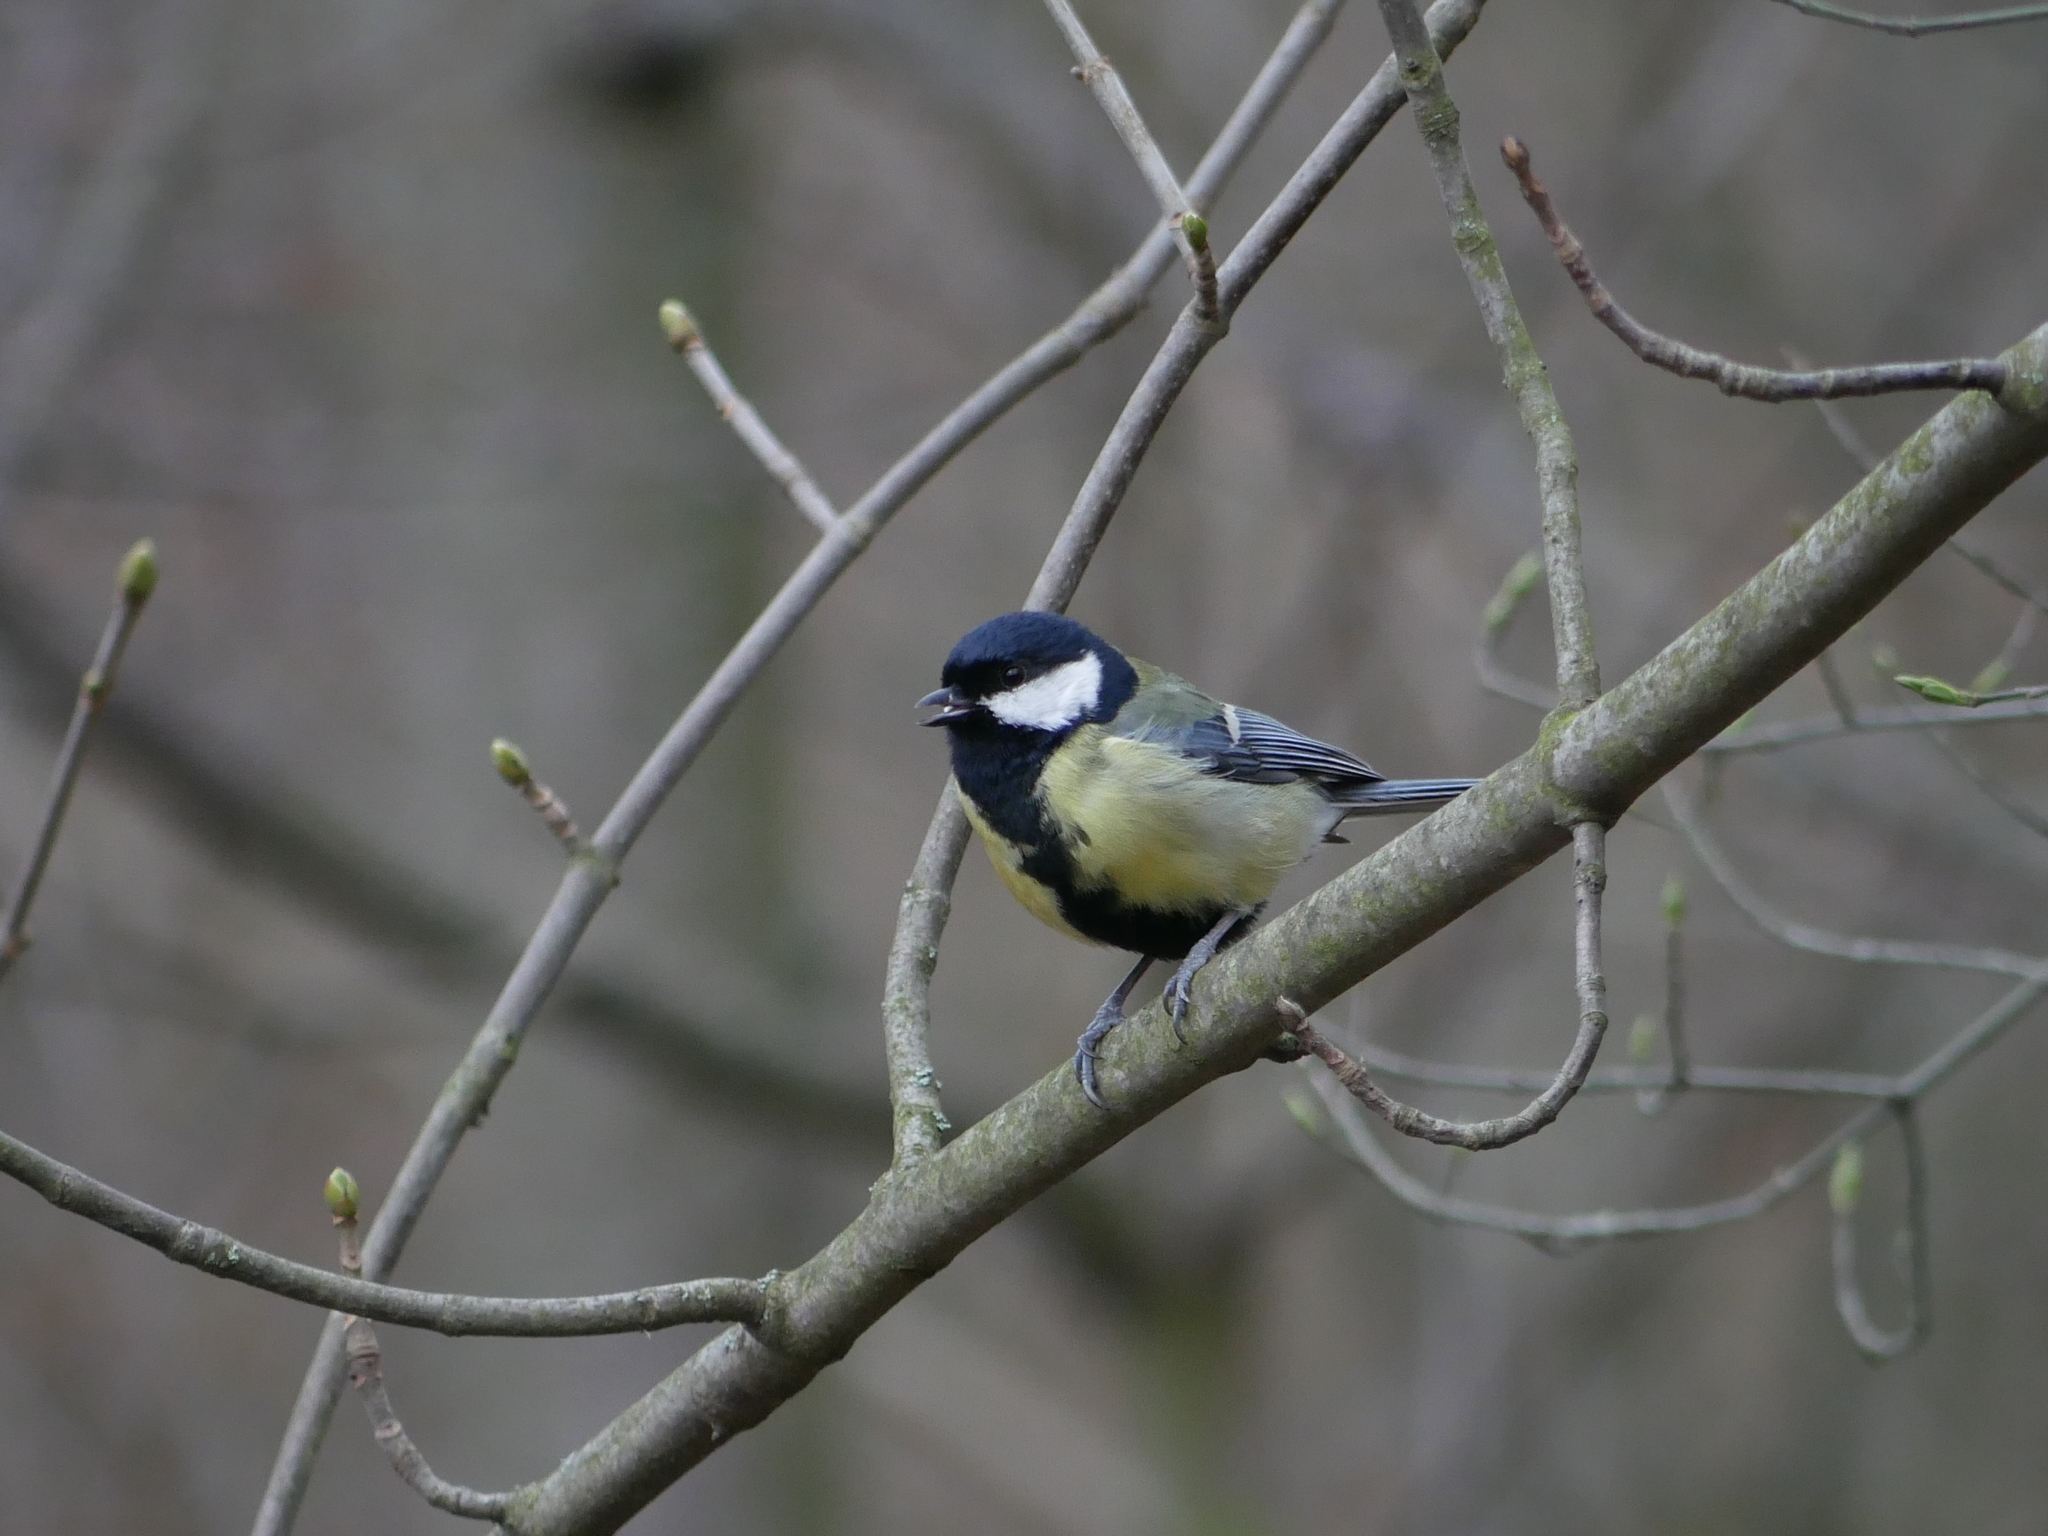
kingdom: Animalia
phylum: Chordata
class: Aves
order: Passeriformes
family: Paridae
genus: Parus
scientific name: Parus major
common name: Great tit
